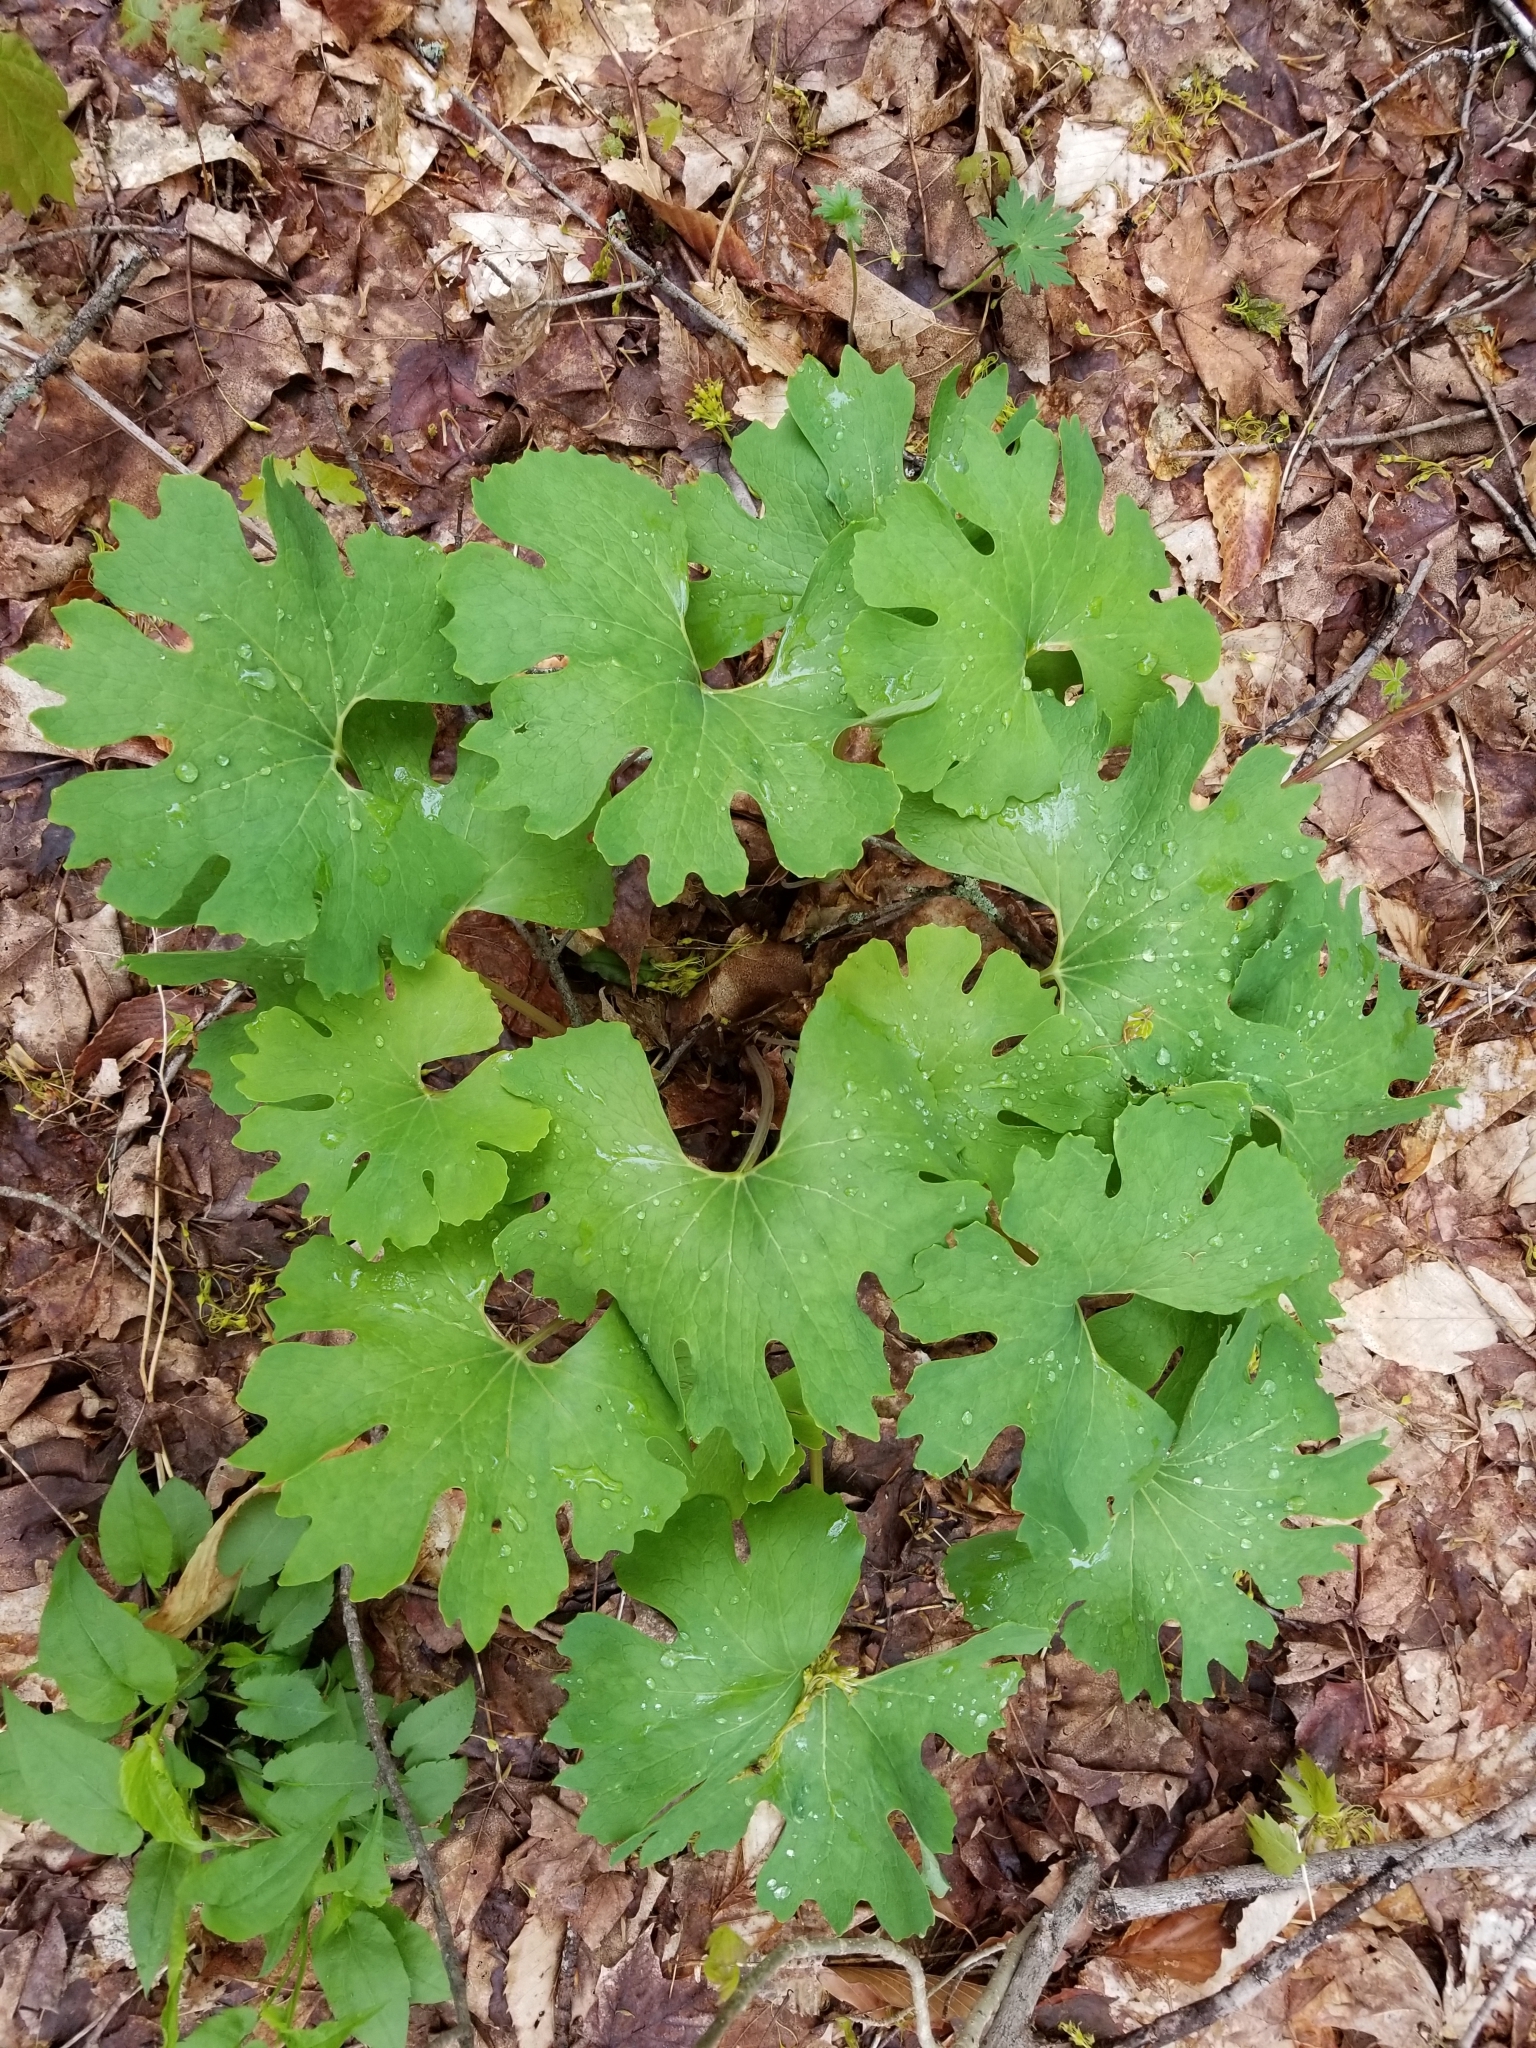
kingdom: Plantae
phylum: Tracheophyta
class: Magnoliopsida
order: Ranunculales
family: Papaveraceae
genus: Sanguinaria
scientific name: Sanguinaria canadensis
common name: Bloodroot
